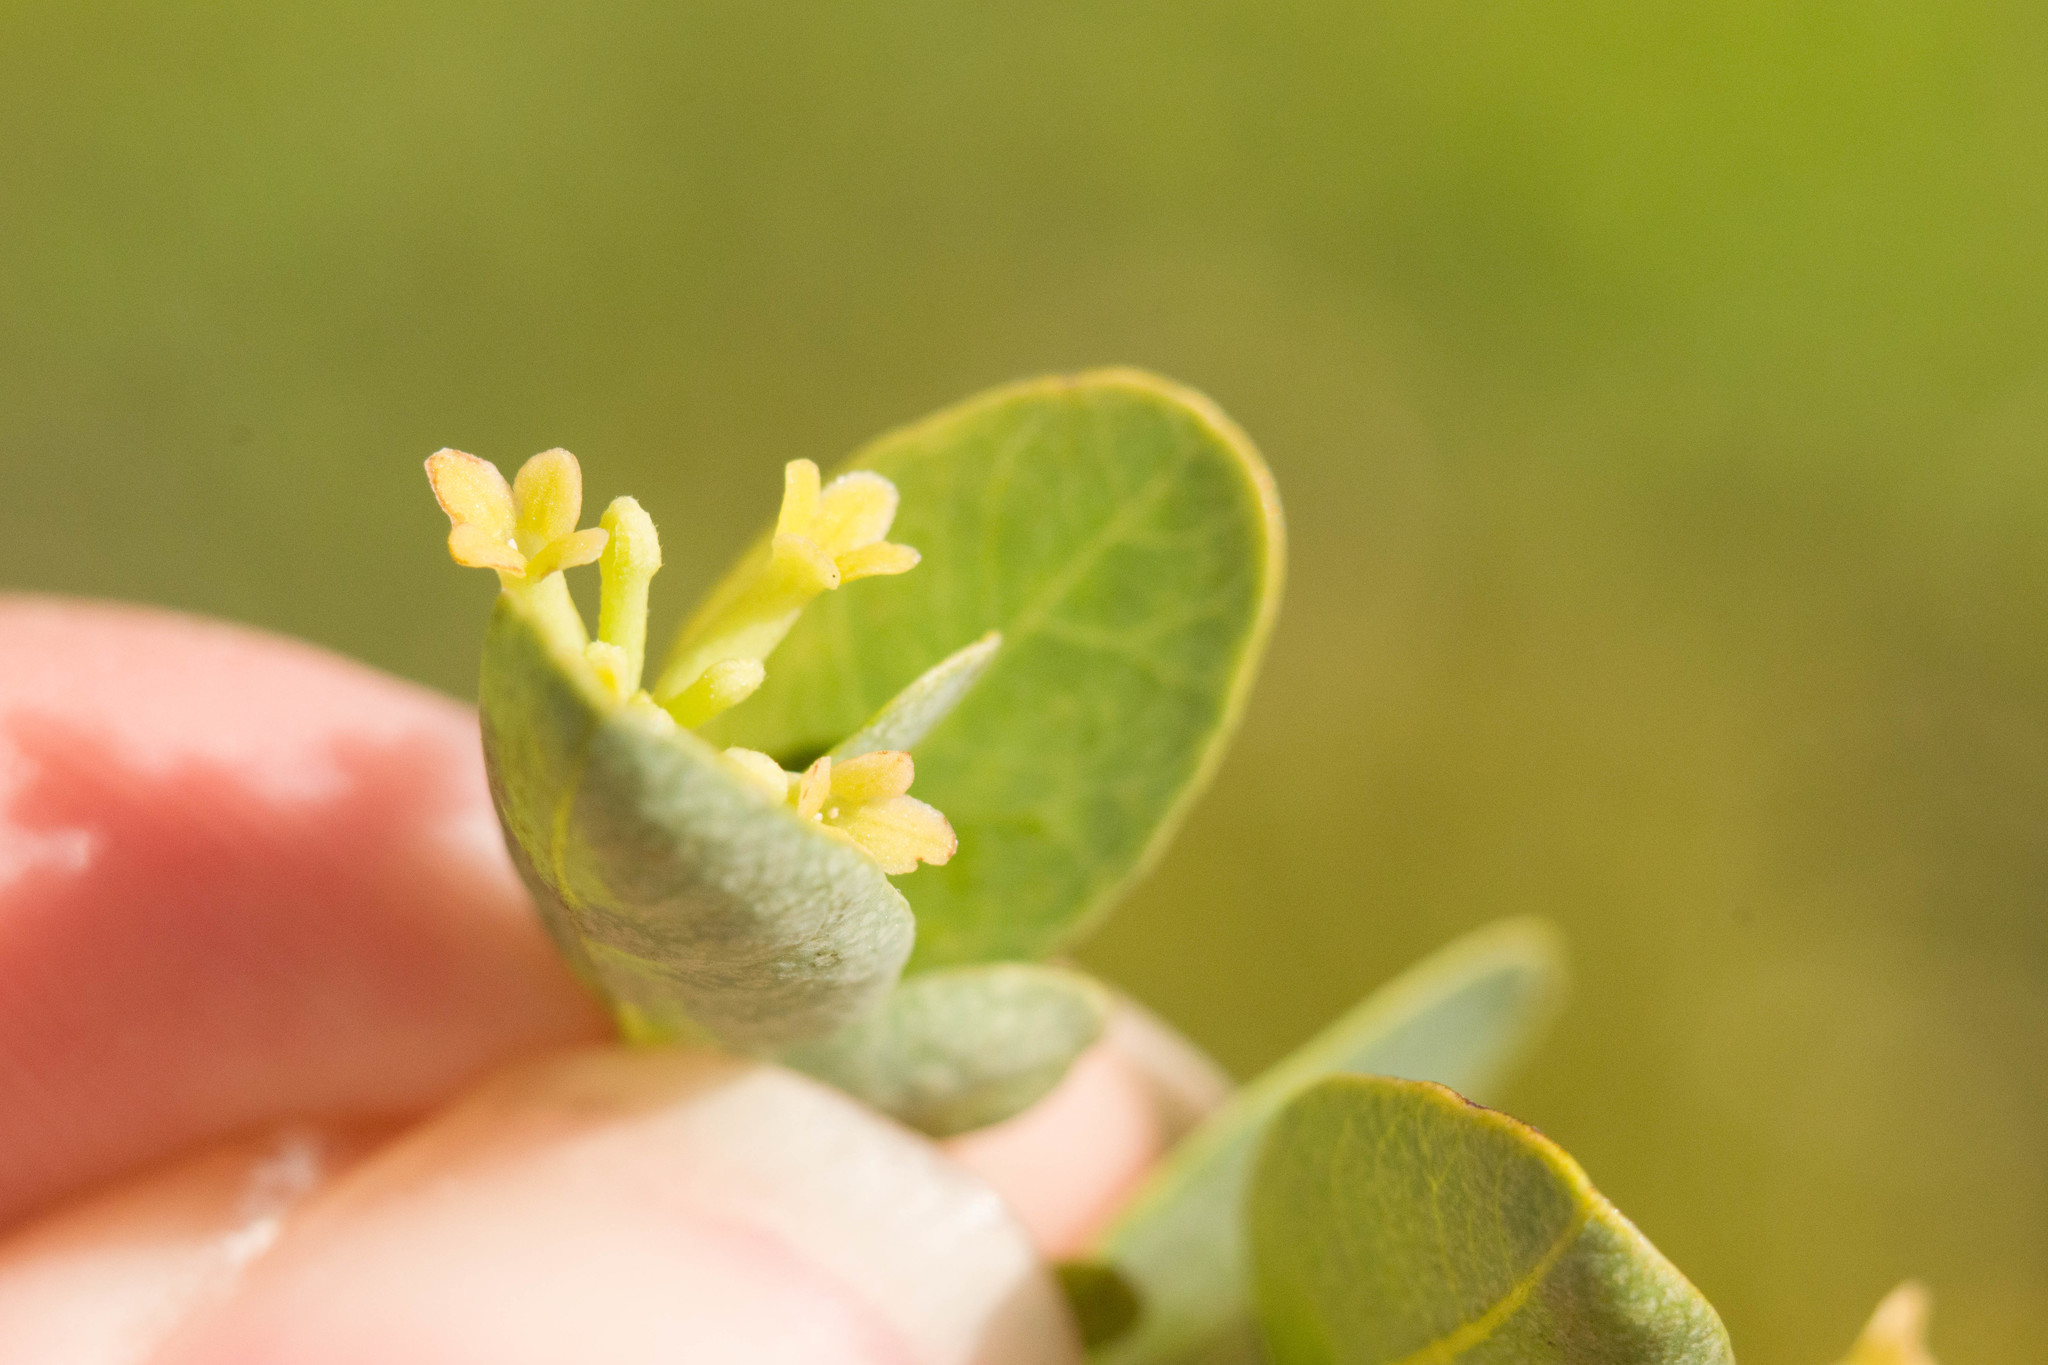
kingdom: Plantae
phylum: Tracheophyta
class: Magnoliopsida
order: Malvales
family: Thymelaeaceae
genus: Wikstroemia
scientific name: Wikstroemia oahuensis
